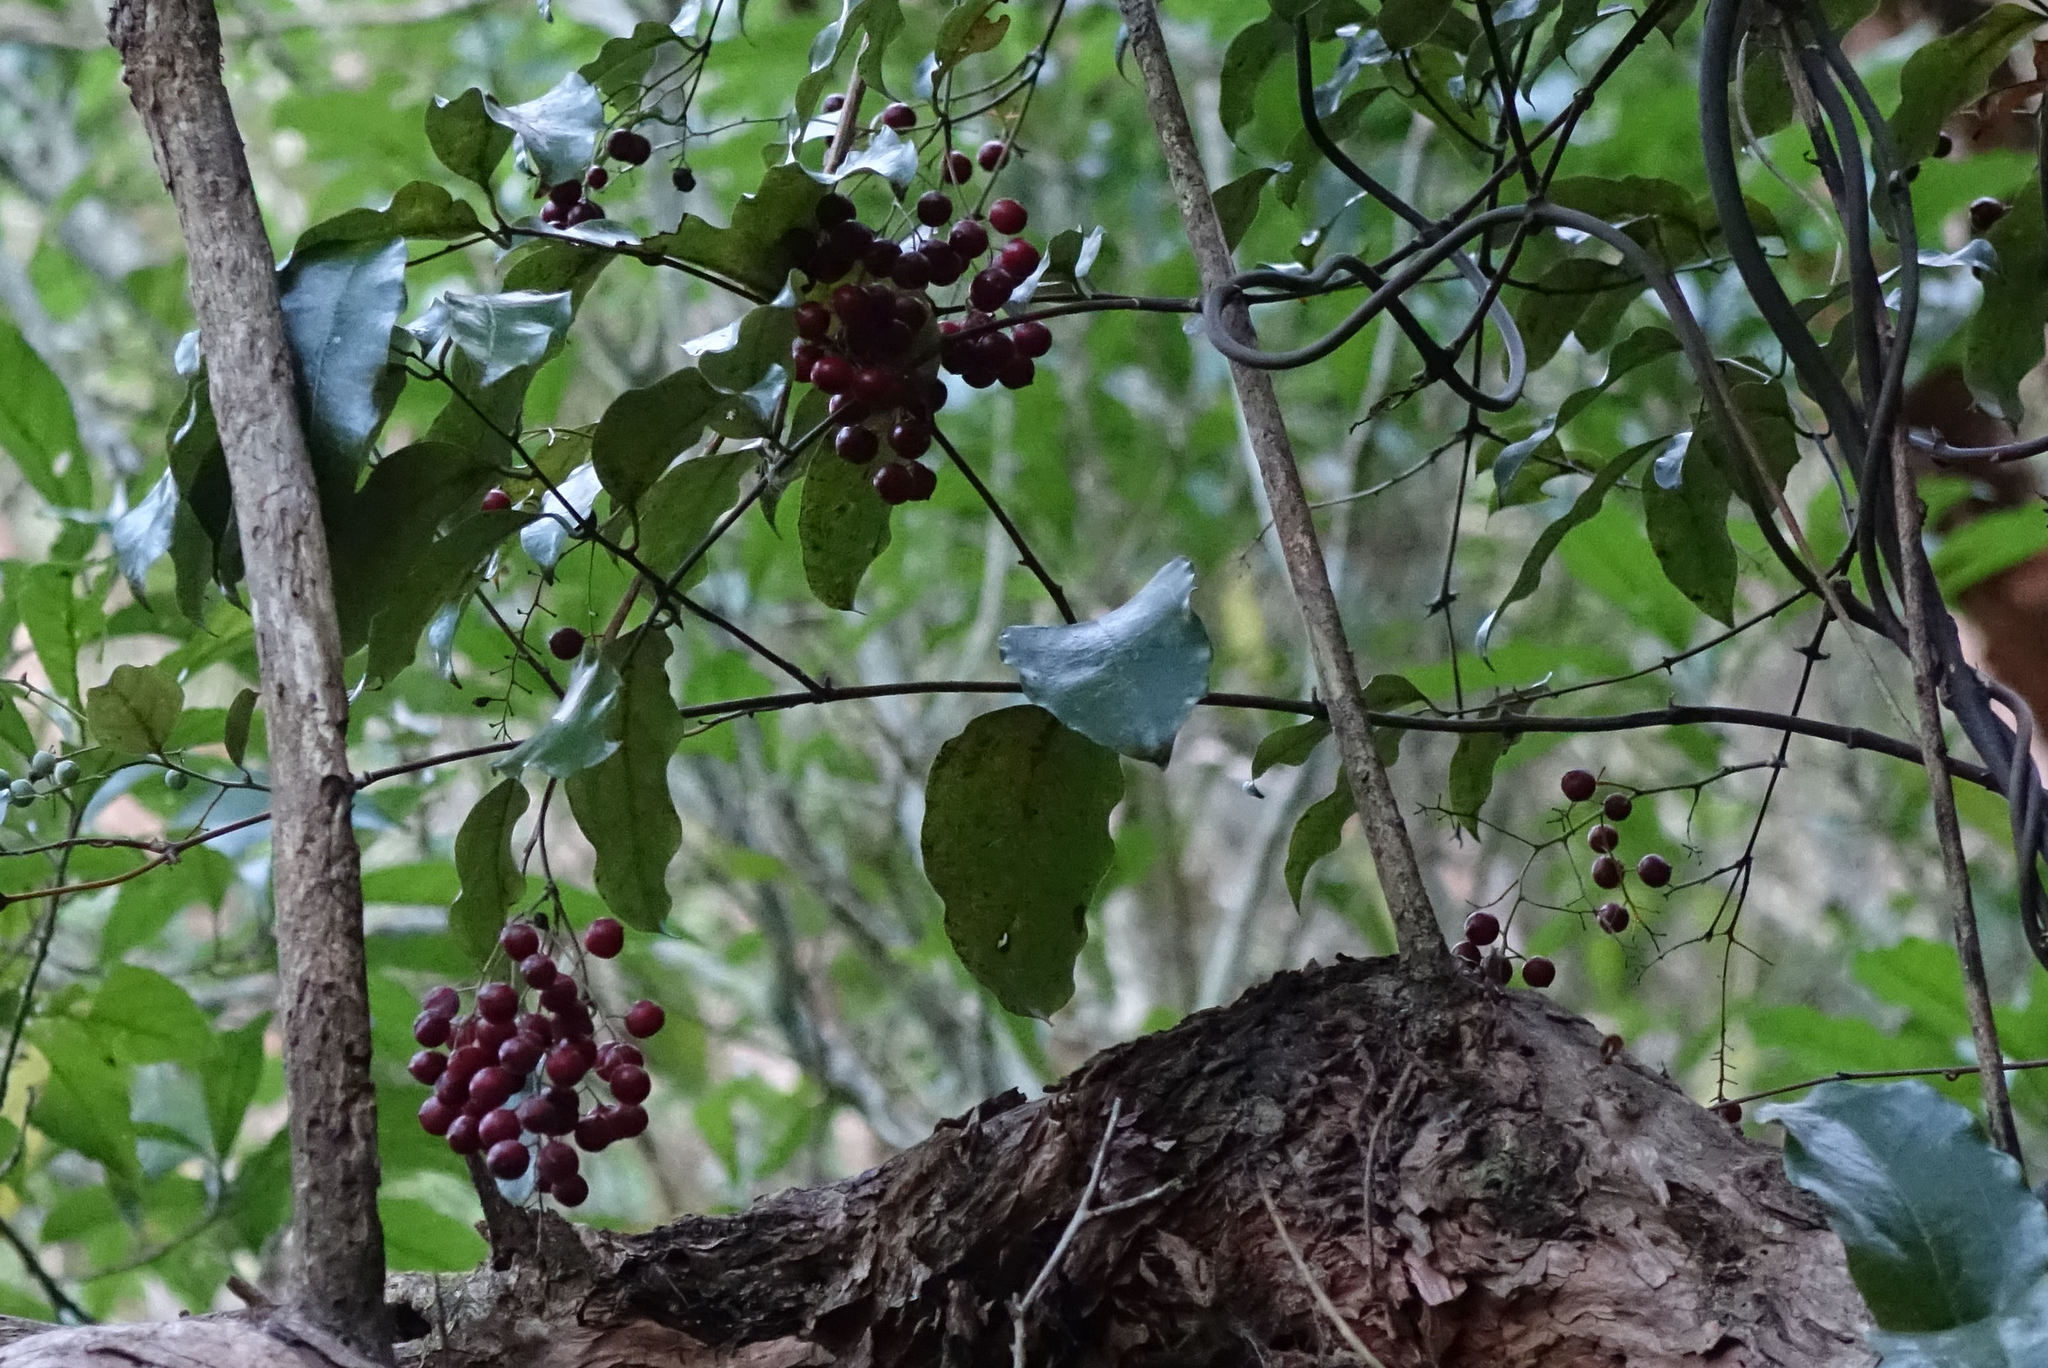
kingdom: Plantae
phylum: Tracheophyta
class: Liliopsida
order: Liliales
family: Ripogonaceae
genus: Ripogonum
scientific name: Ripogonum scandens
